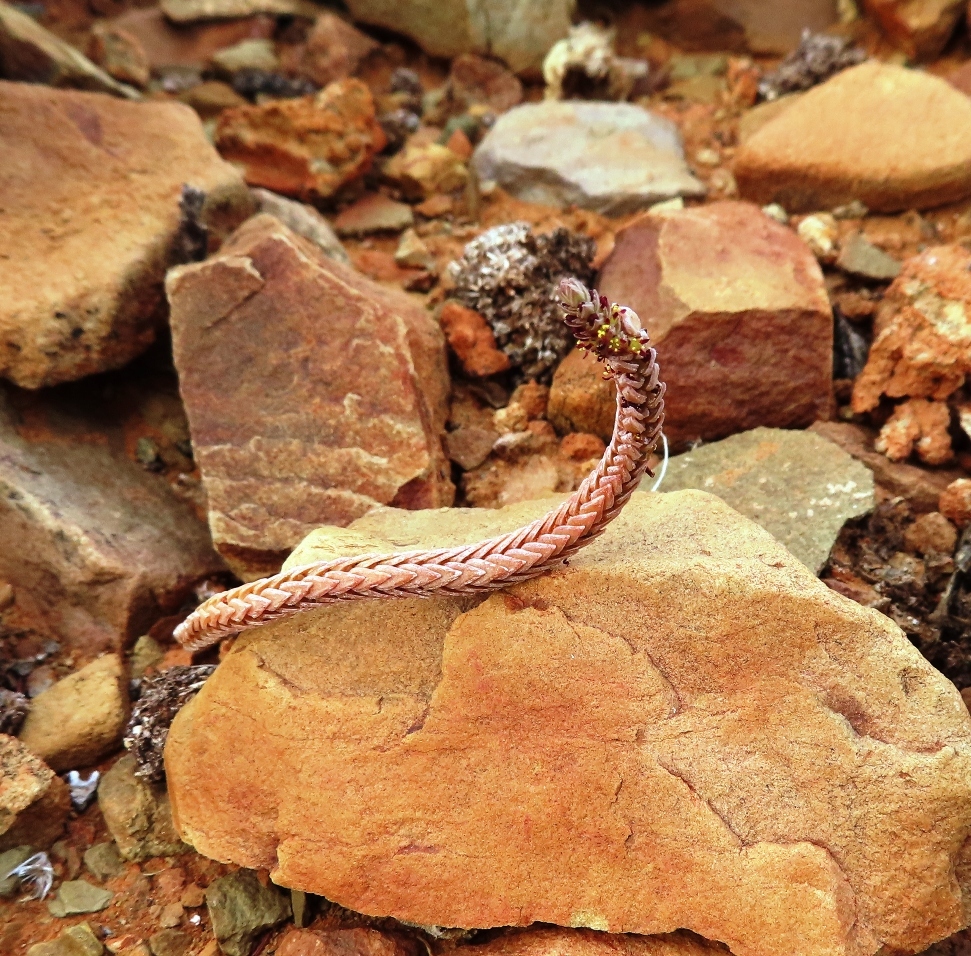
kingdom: Plantae
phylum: Tracheophyta
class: Magnoliopsida
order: Saxifragales
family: Crassulaceae
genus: Crassula
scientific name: Crassula muscosa
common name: Toy-cypress
